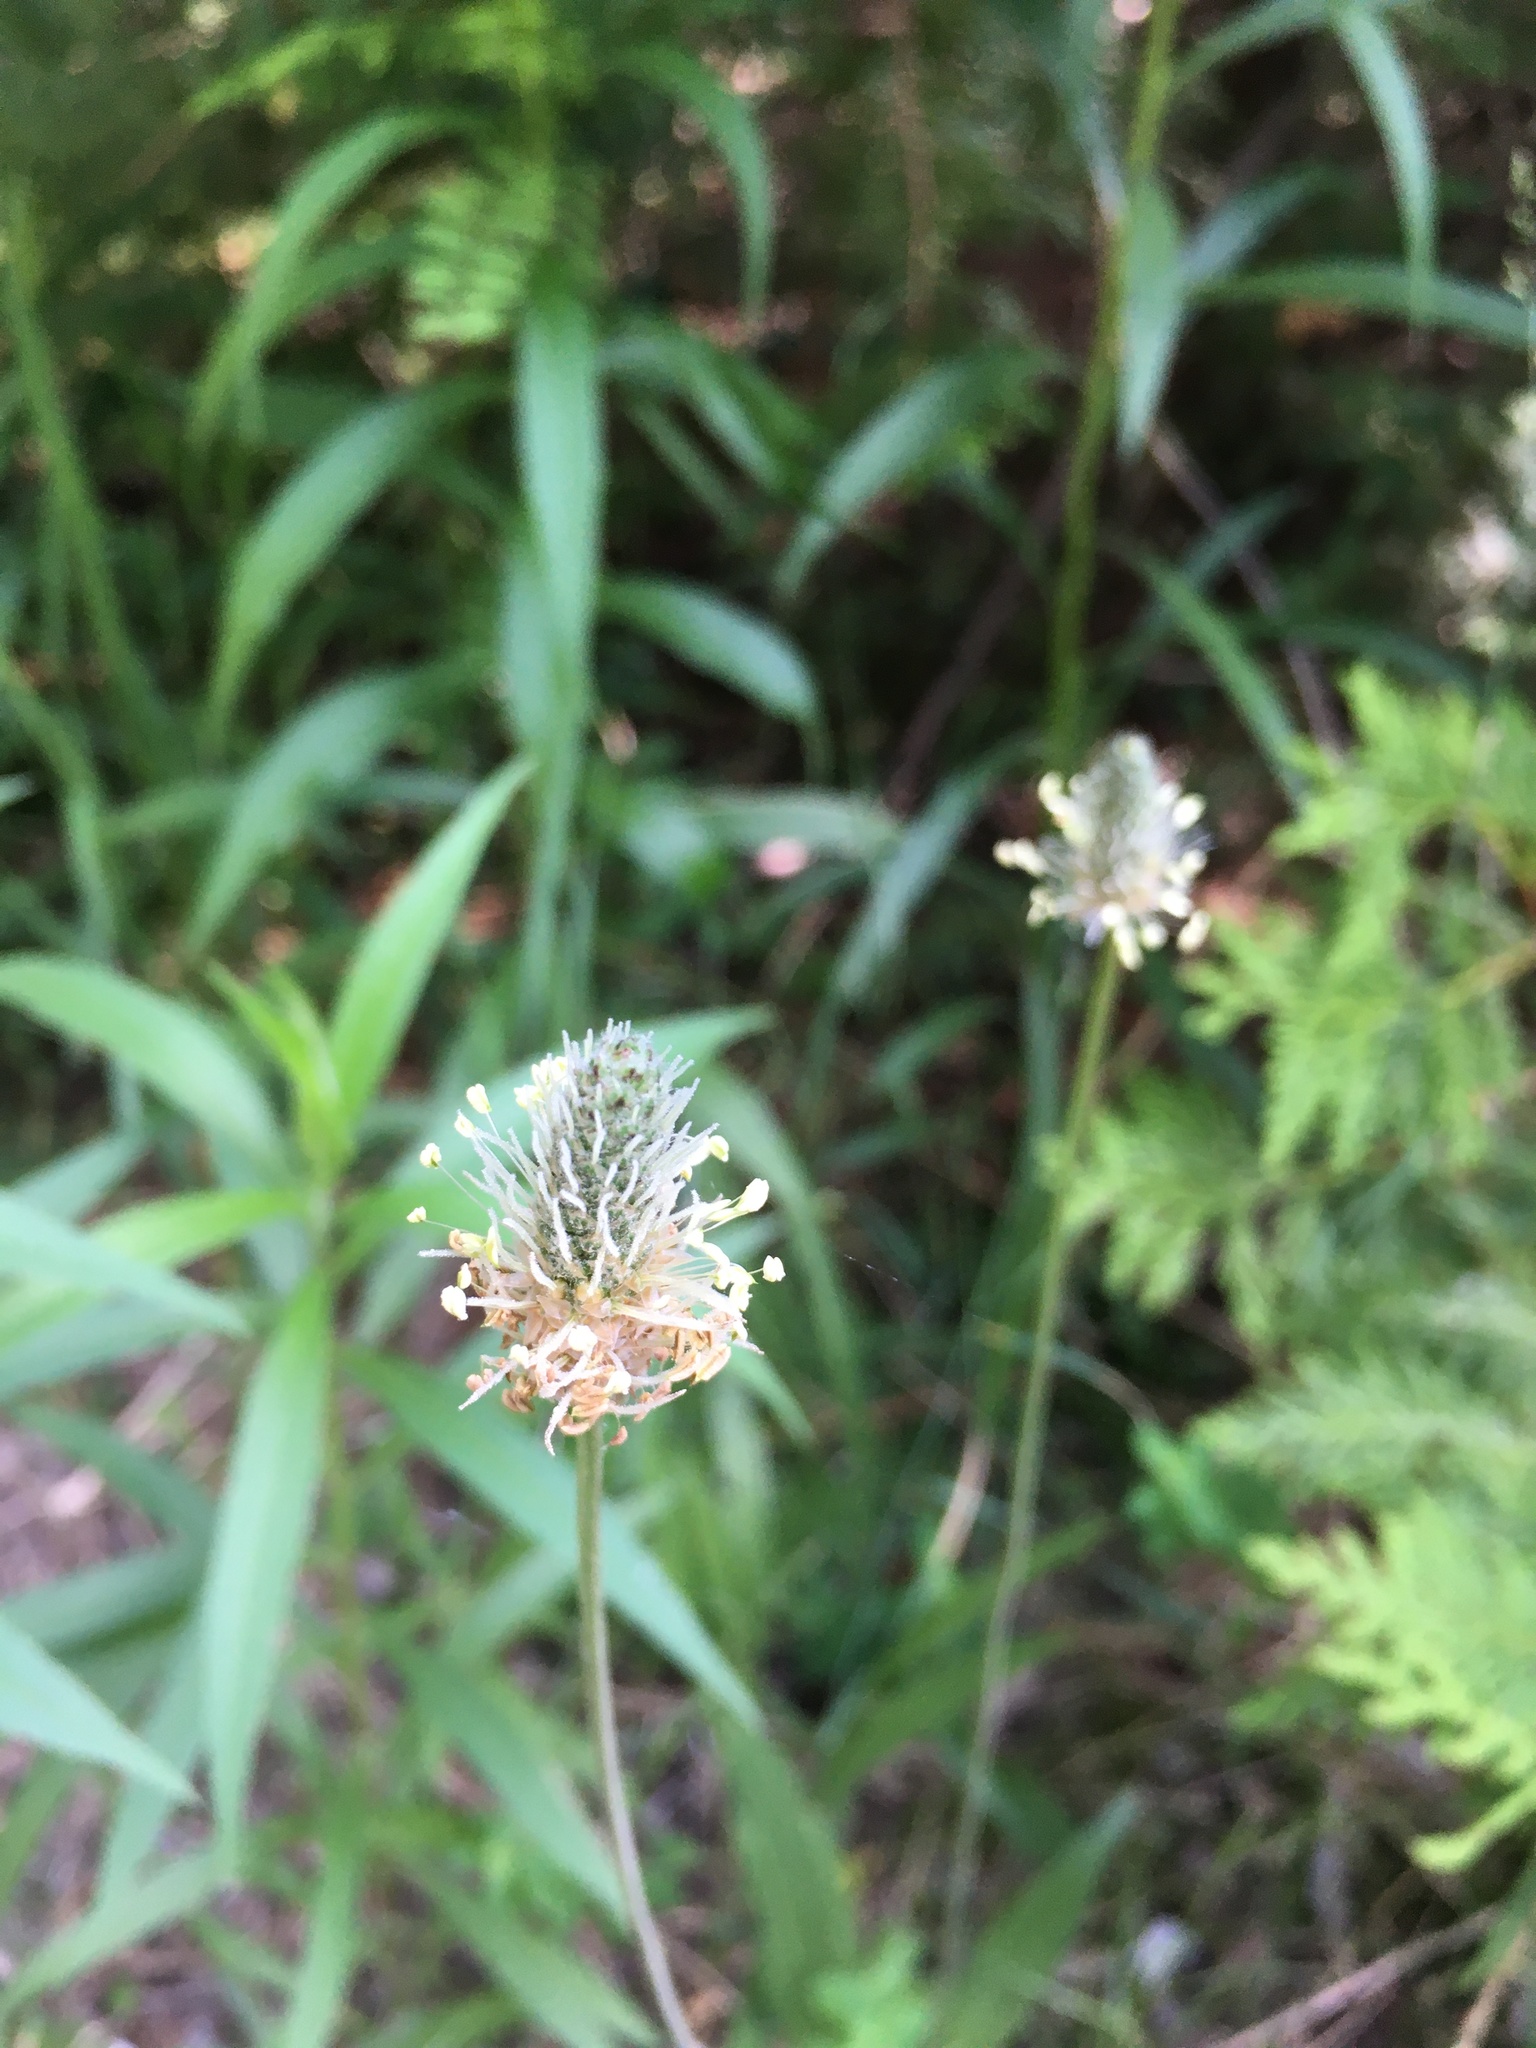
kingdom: Plantae
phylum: Tracheophyta
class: Magnoliopsida
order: Lamiales
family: Plantaginaceae
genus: Plantago
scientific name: Plantago lanceolata
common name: Ribwort plantain
